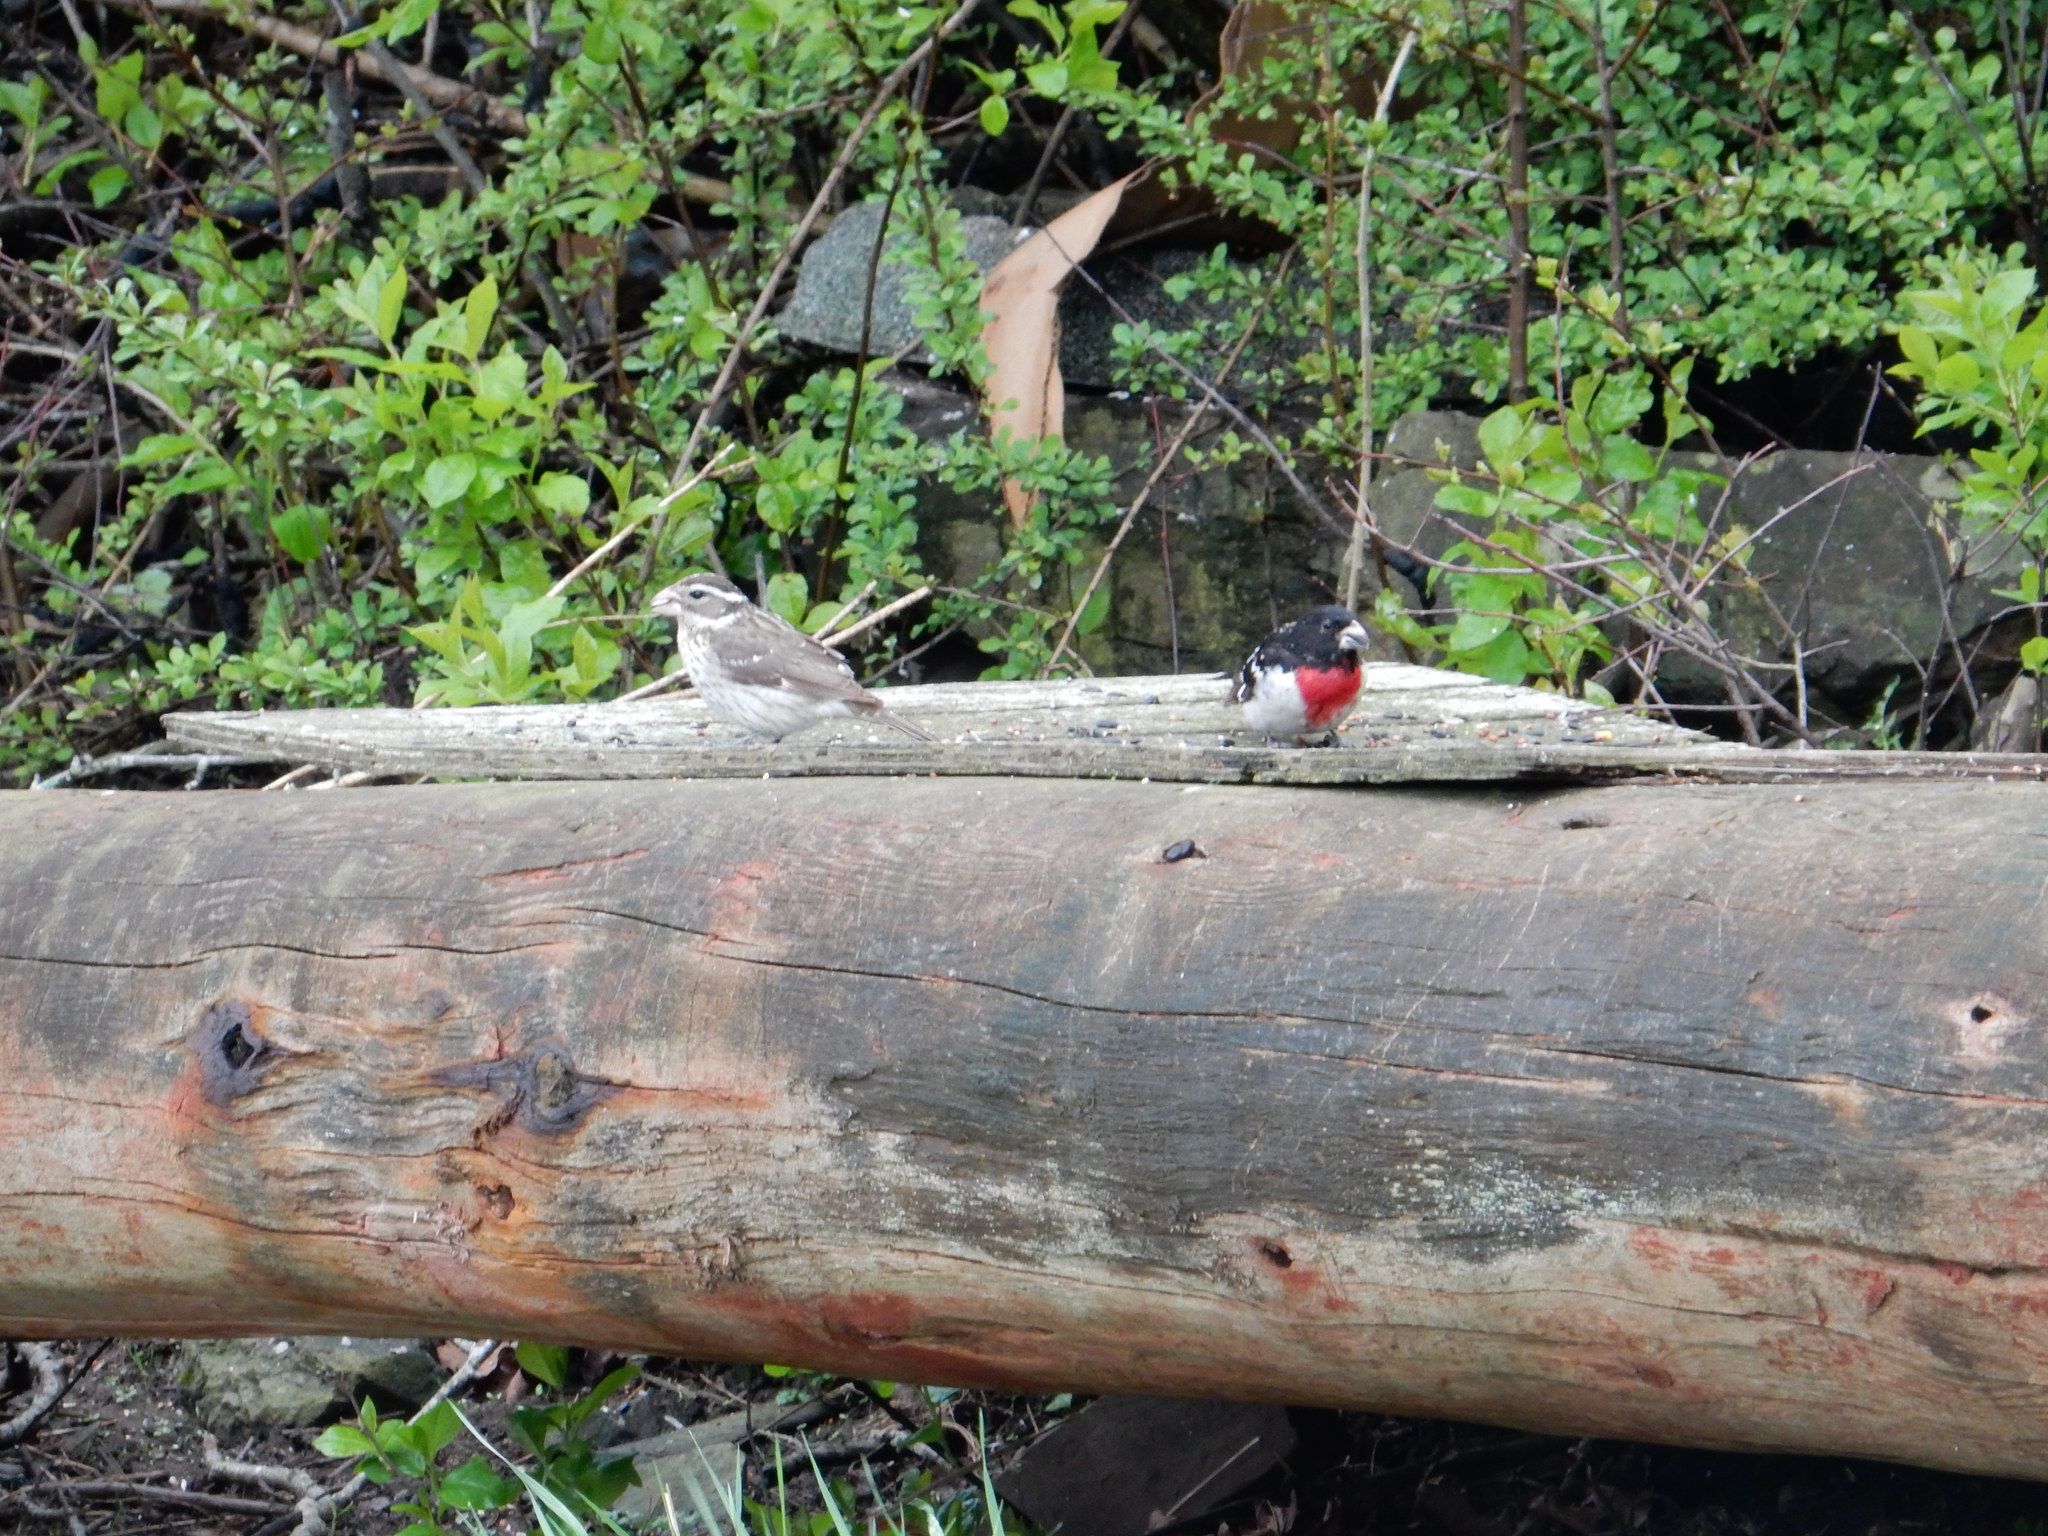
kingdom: Animalia
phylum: Chordata
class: Aves
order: Passeriformes
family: Cardinalidae
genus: Pheucticus
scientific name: Pheucticus ludovicianus
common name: Rose-breasted grosbeak
